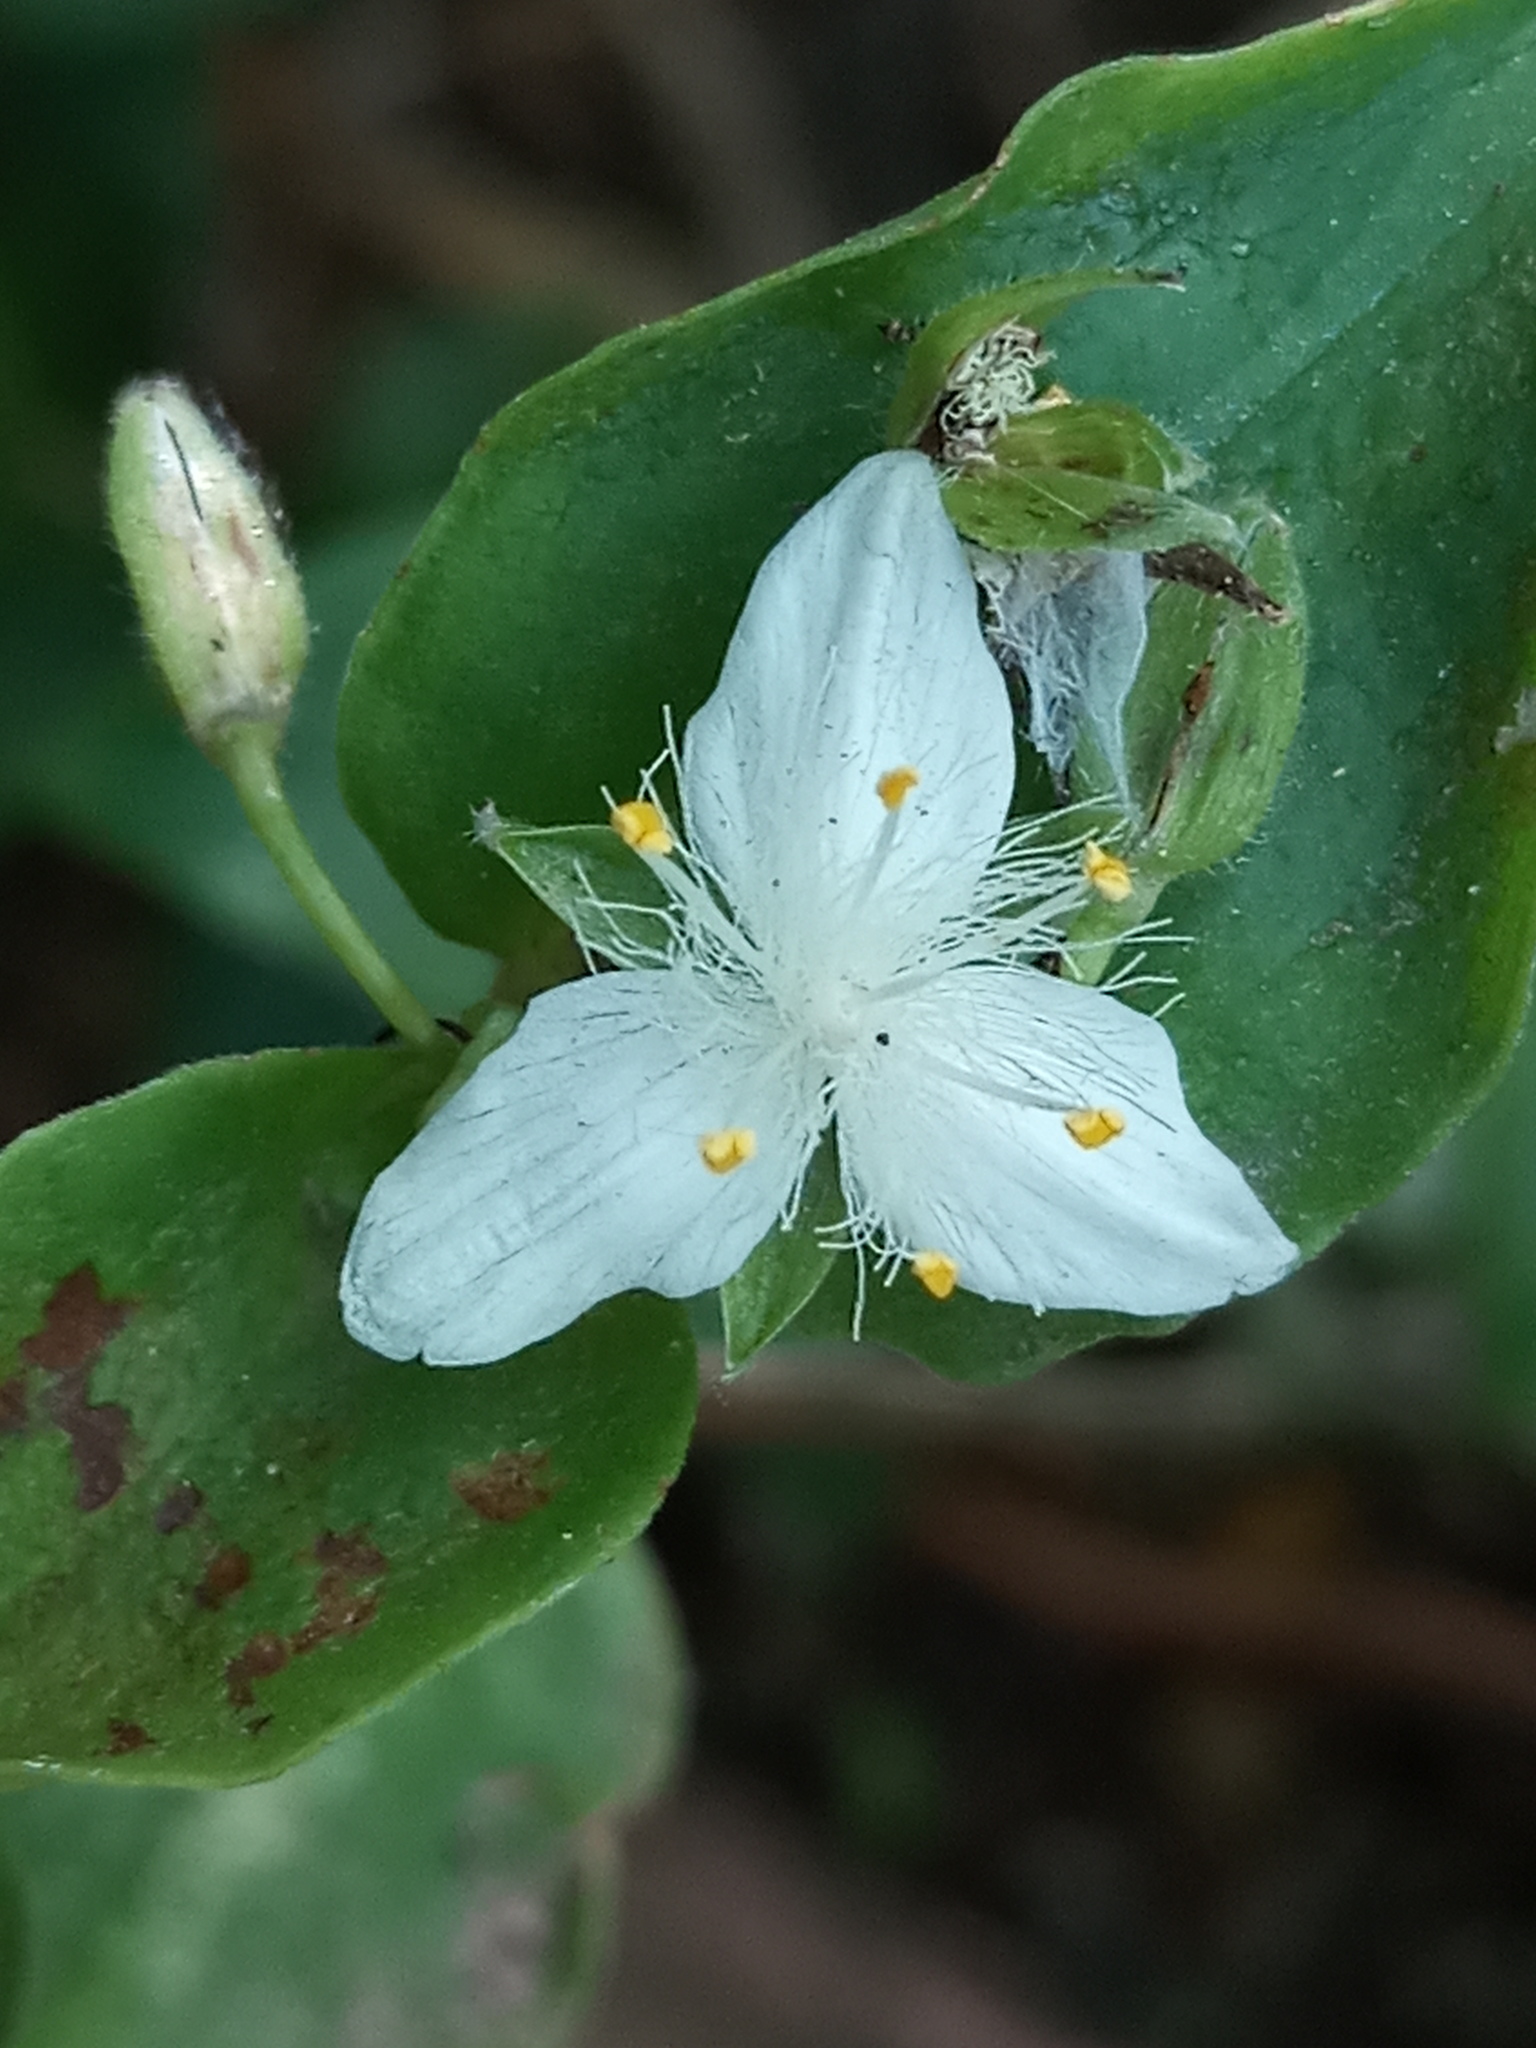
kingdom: Plantae
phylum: Tracheophyta
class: Liliopsida
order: Commelinales
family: Commelinaceae
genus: Tradescantia
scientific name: Tradescantia fluminensis
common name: Wandering-jew
